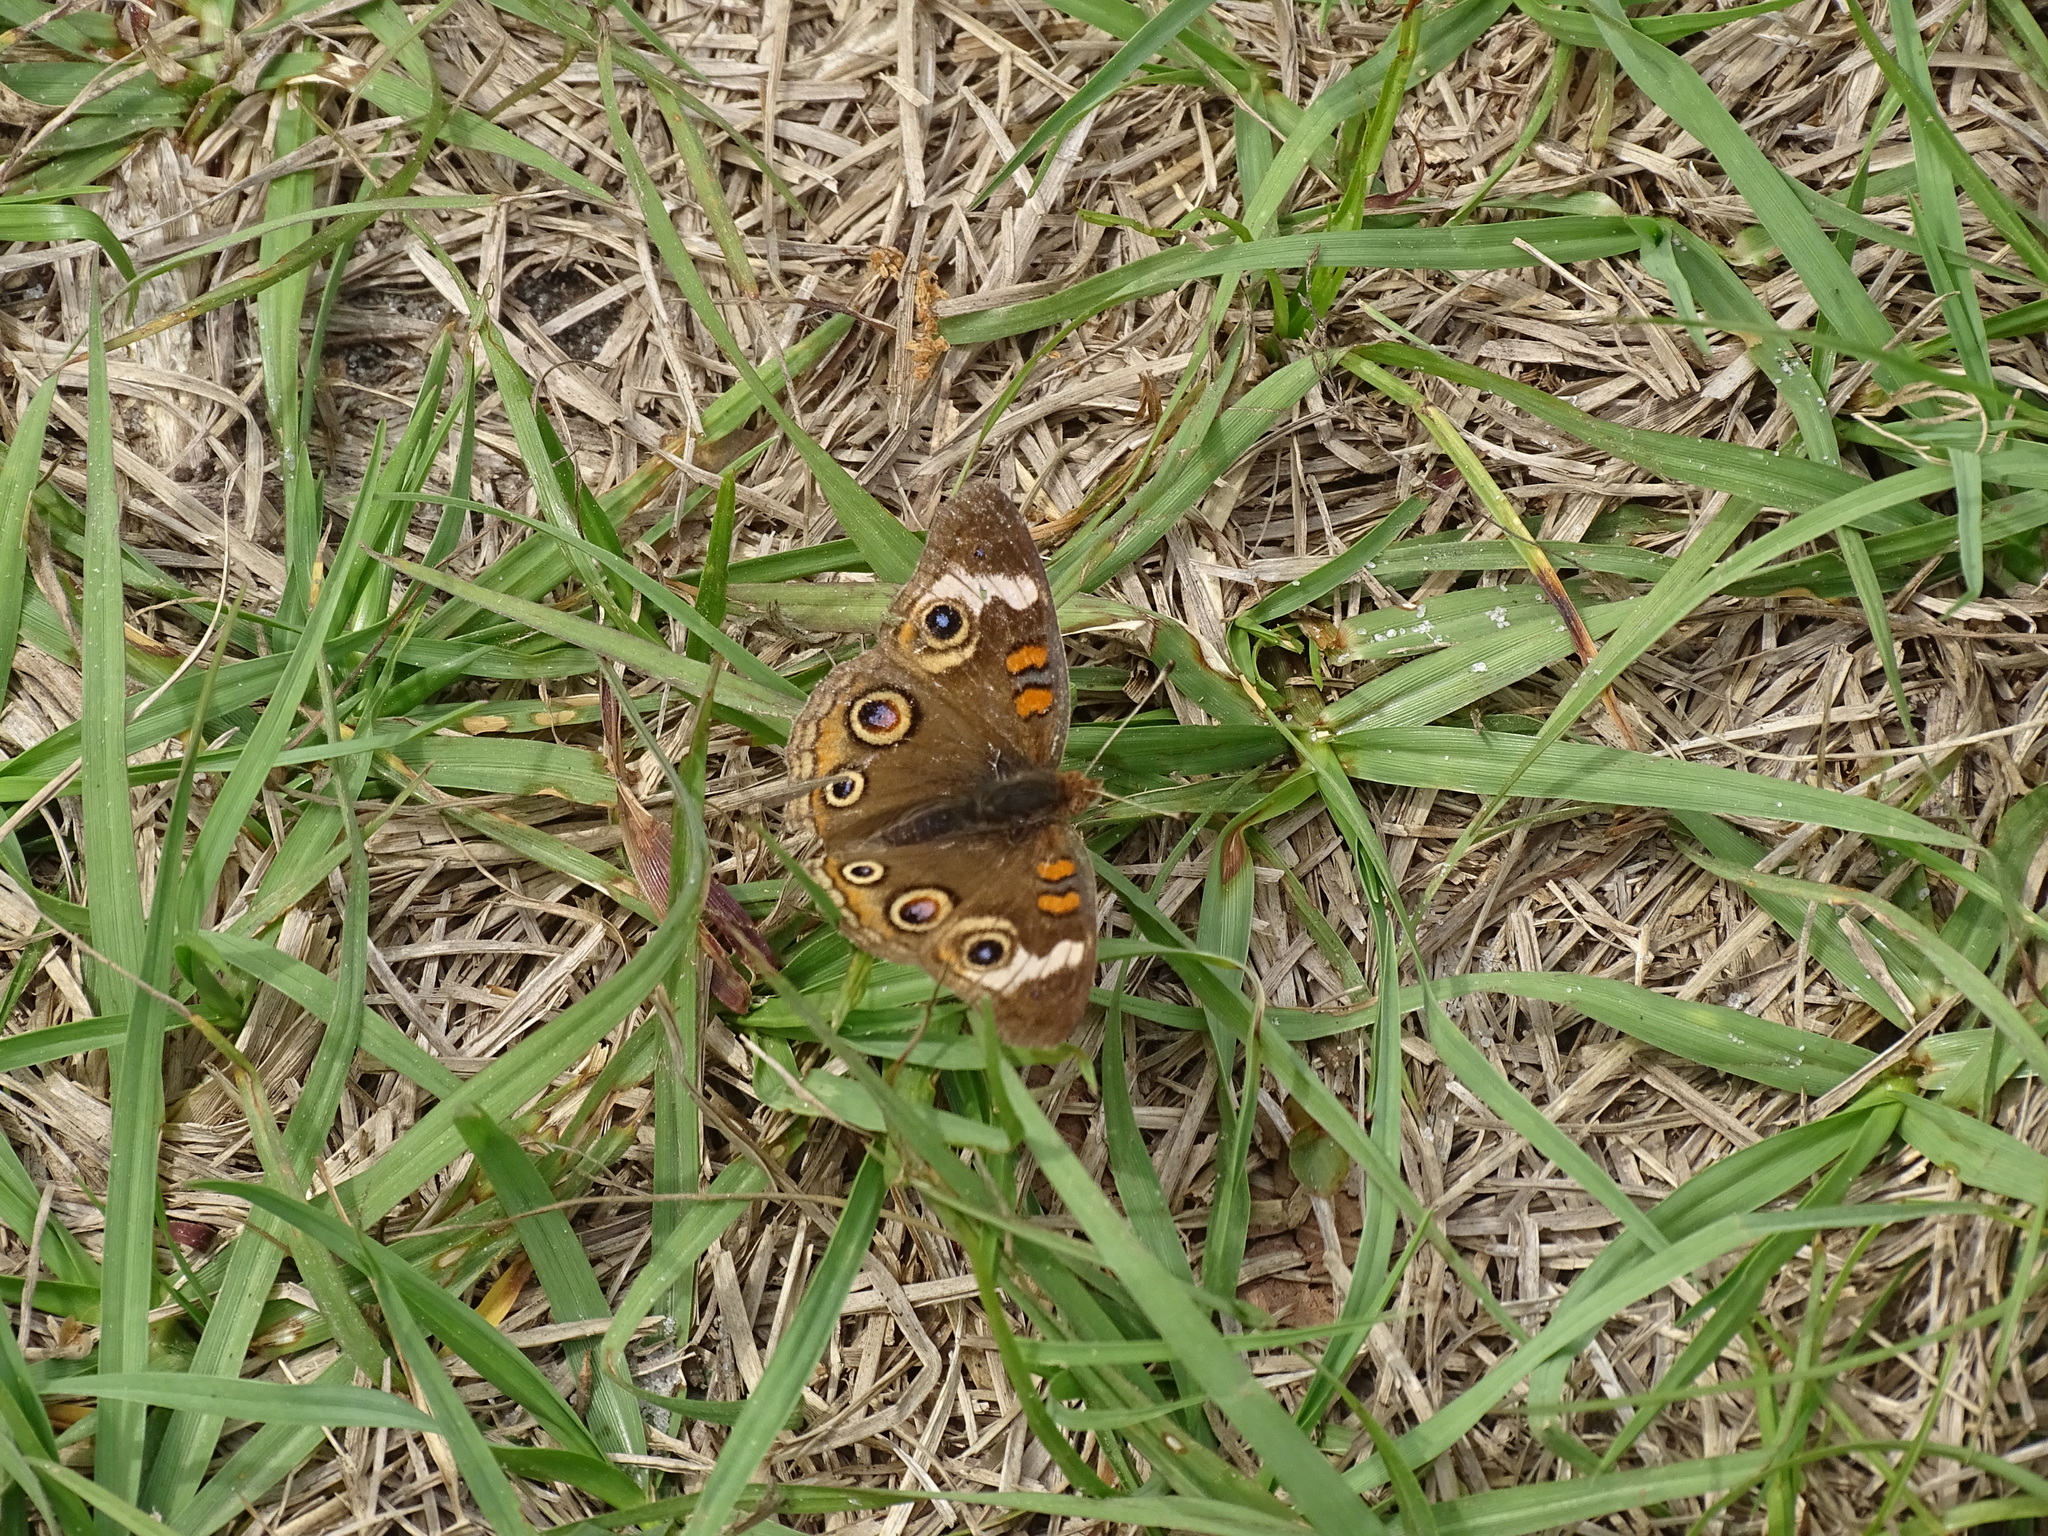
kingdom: Animalia
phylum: Arthropoda
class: Insecta
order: Lepidoptera
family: Nymphalidae
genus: Junonia
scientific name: Junonia coenia
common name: Common buckeye
